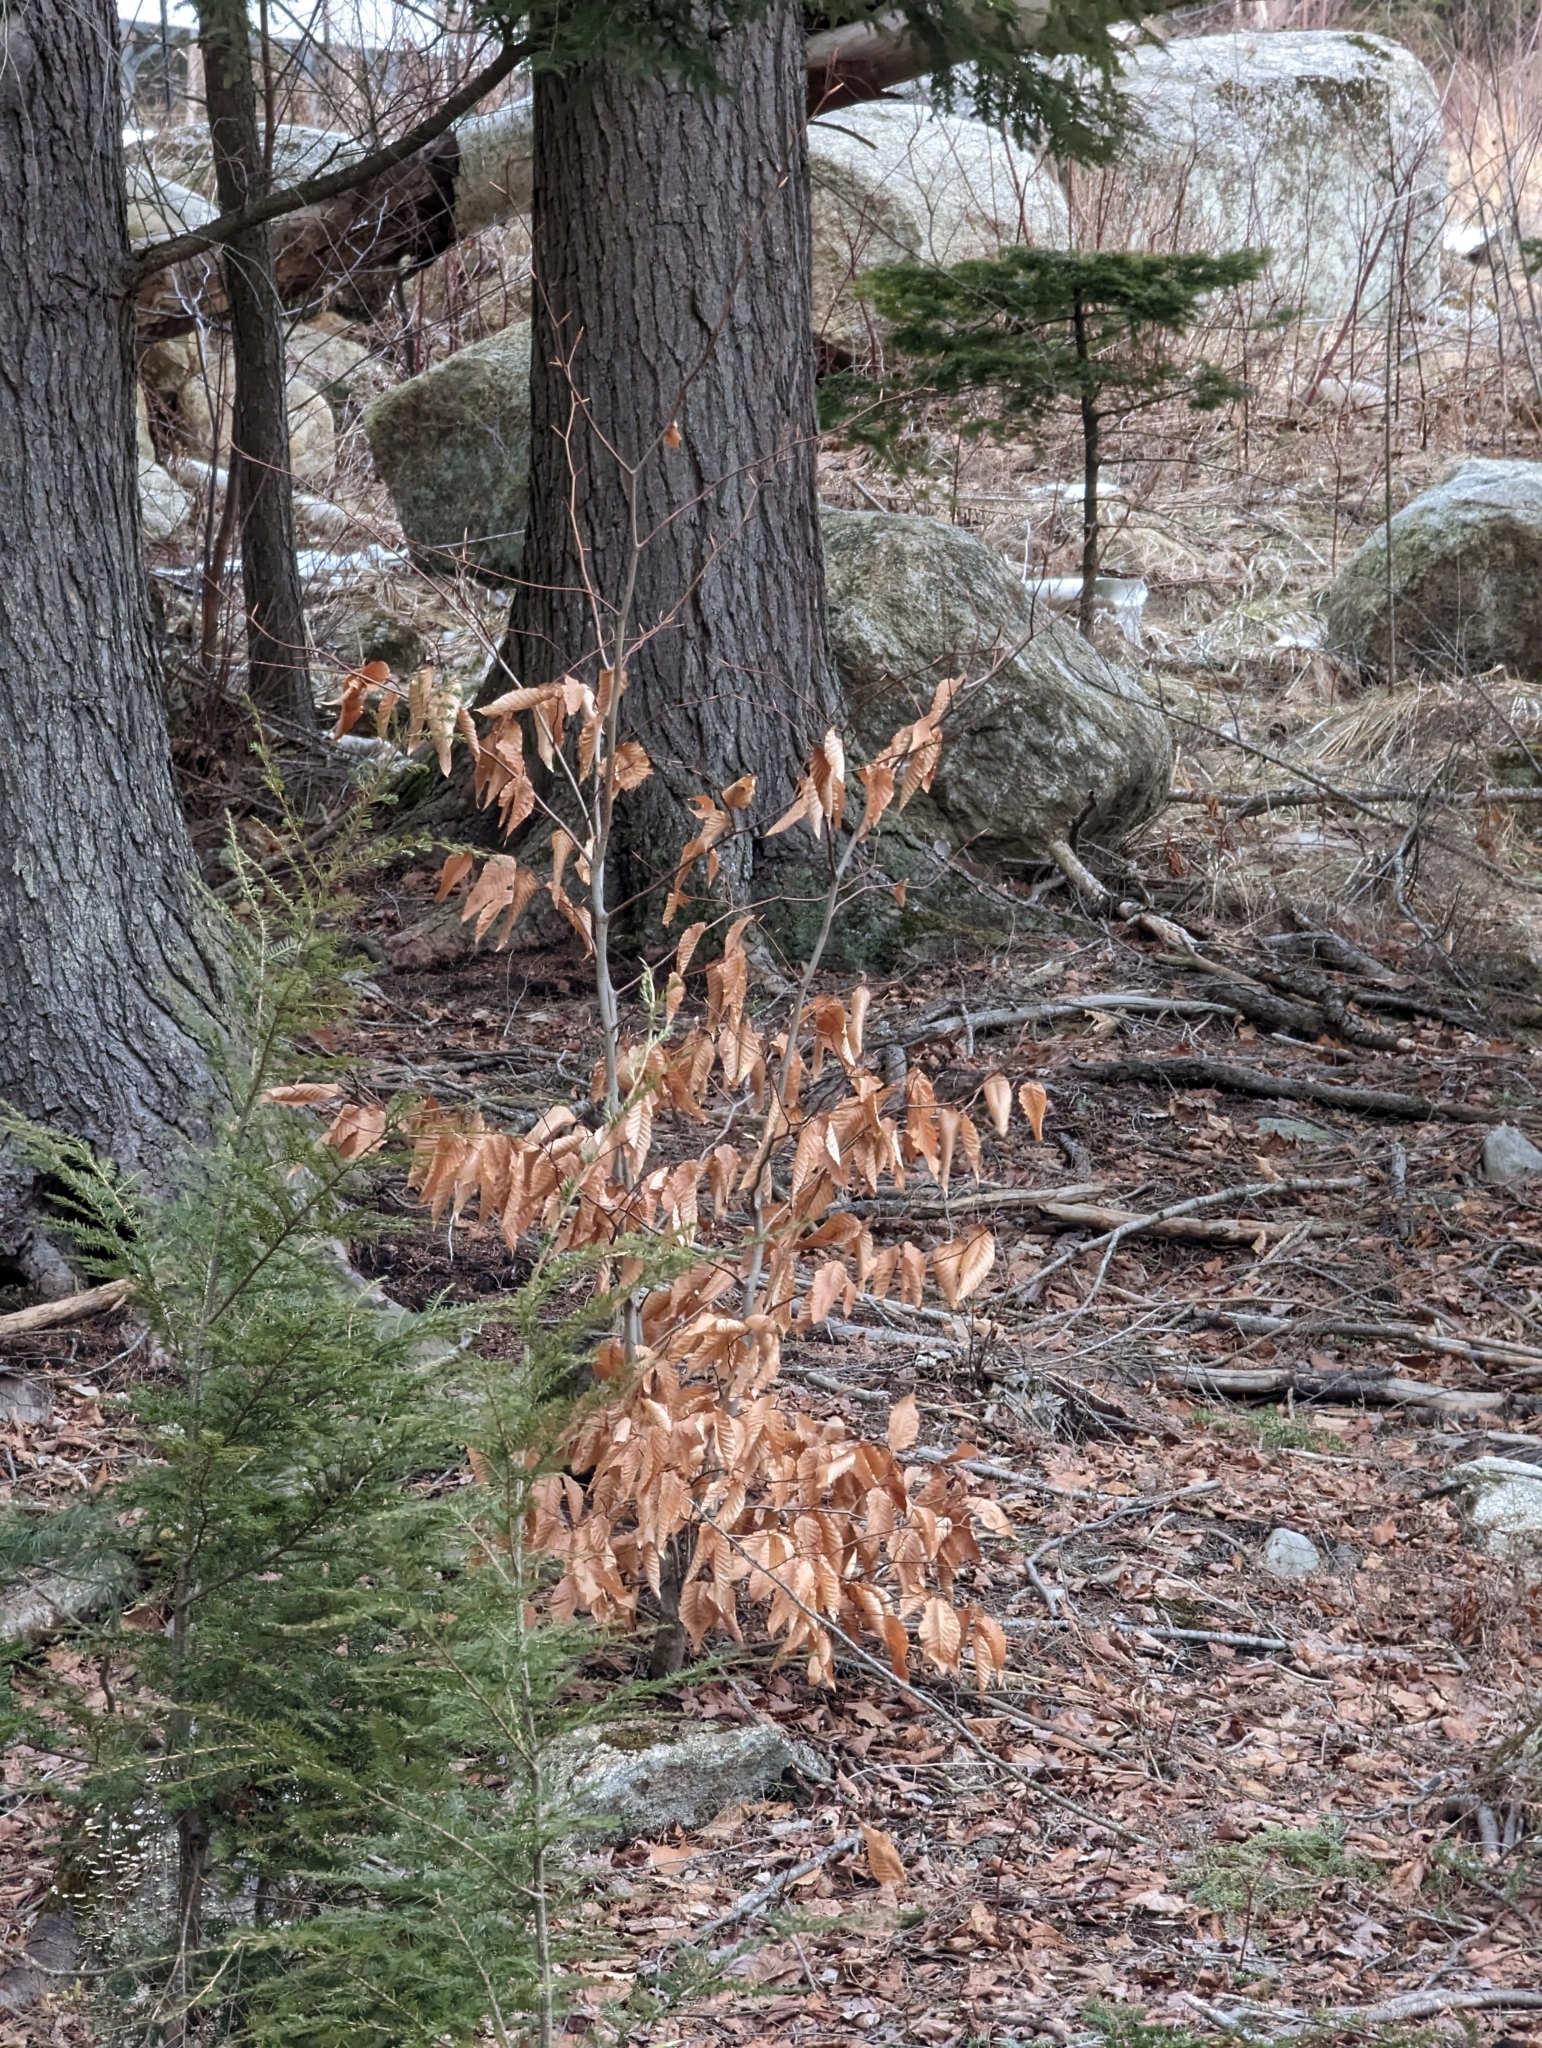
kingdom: Plantae
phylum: Tracheophyta
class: Magnoliopsida
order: Fagales
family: Fagaceae
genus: Fagus
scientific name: Fagus grandifolia
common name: American beech
